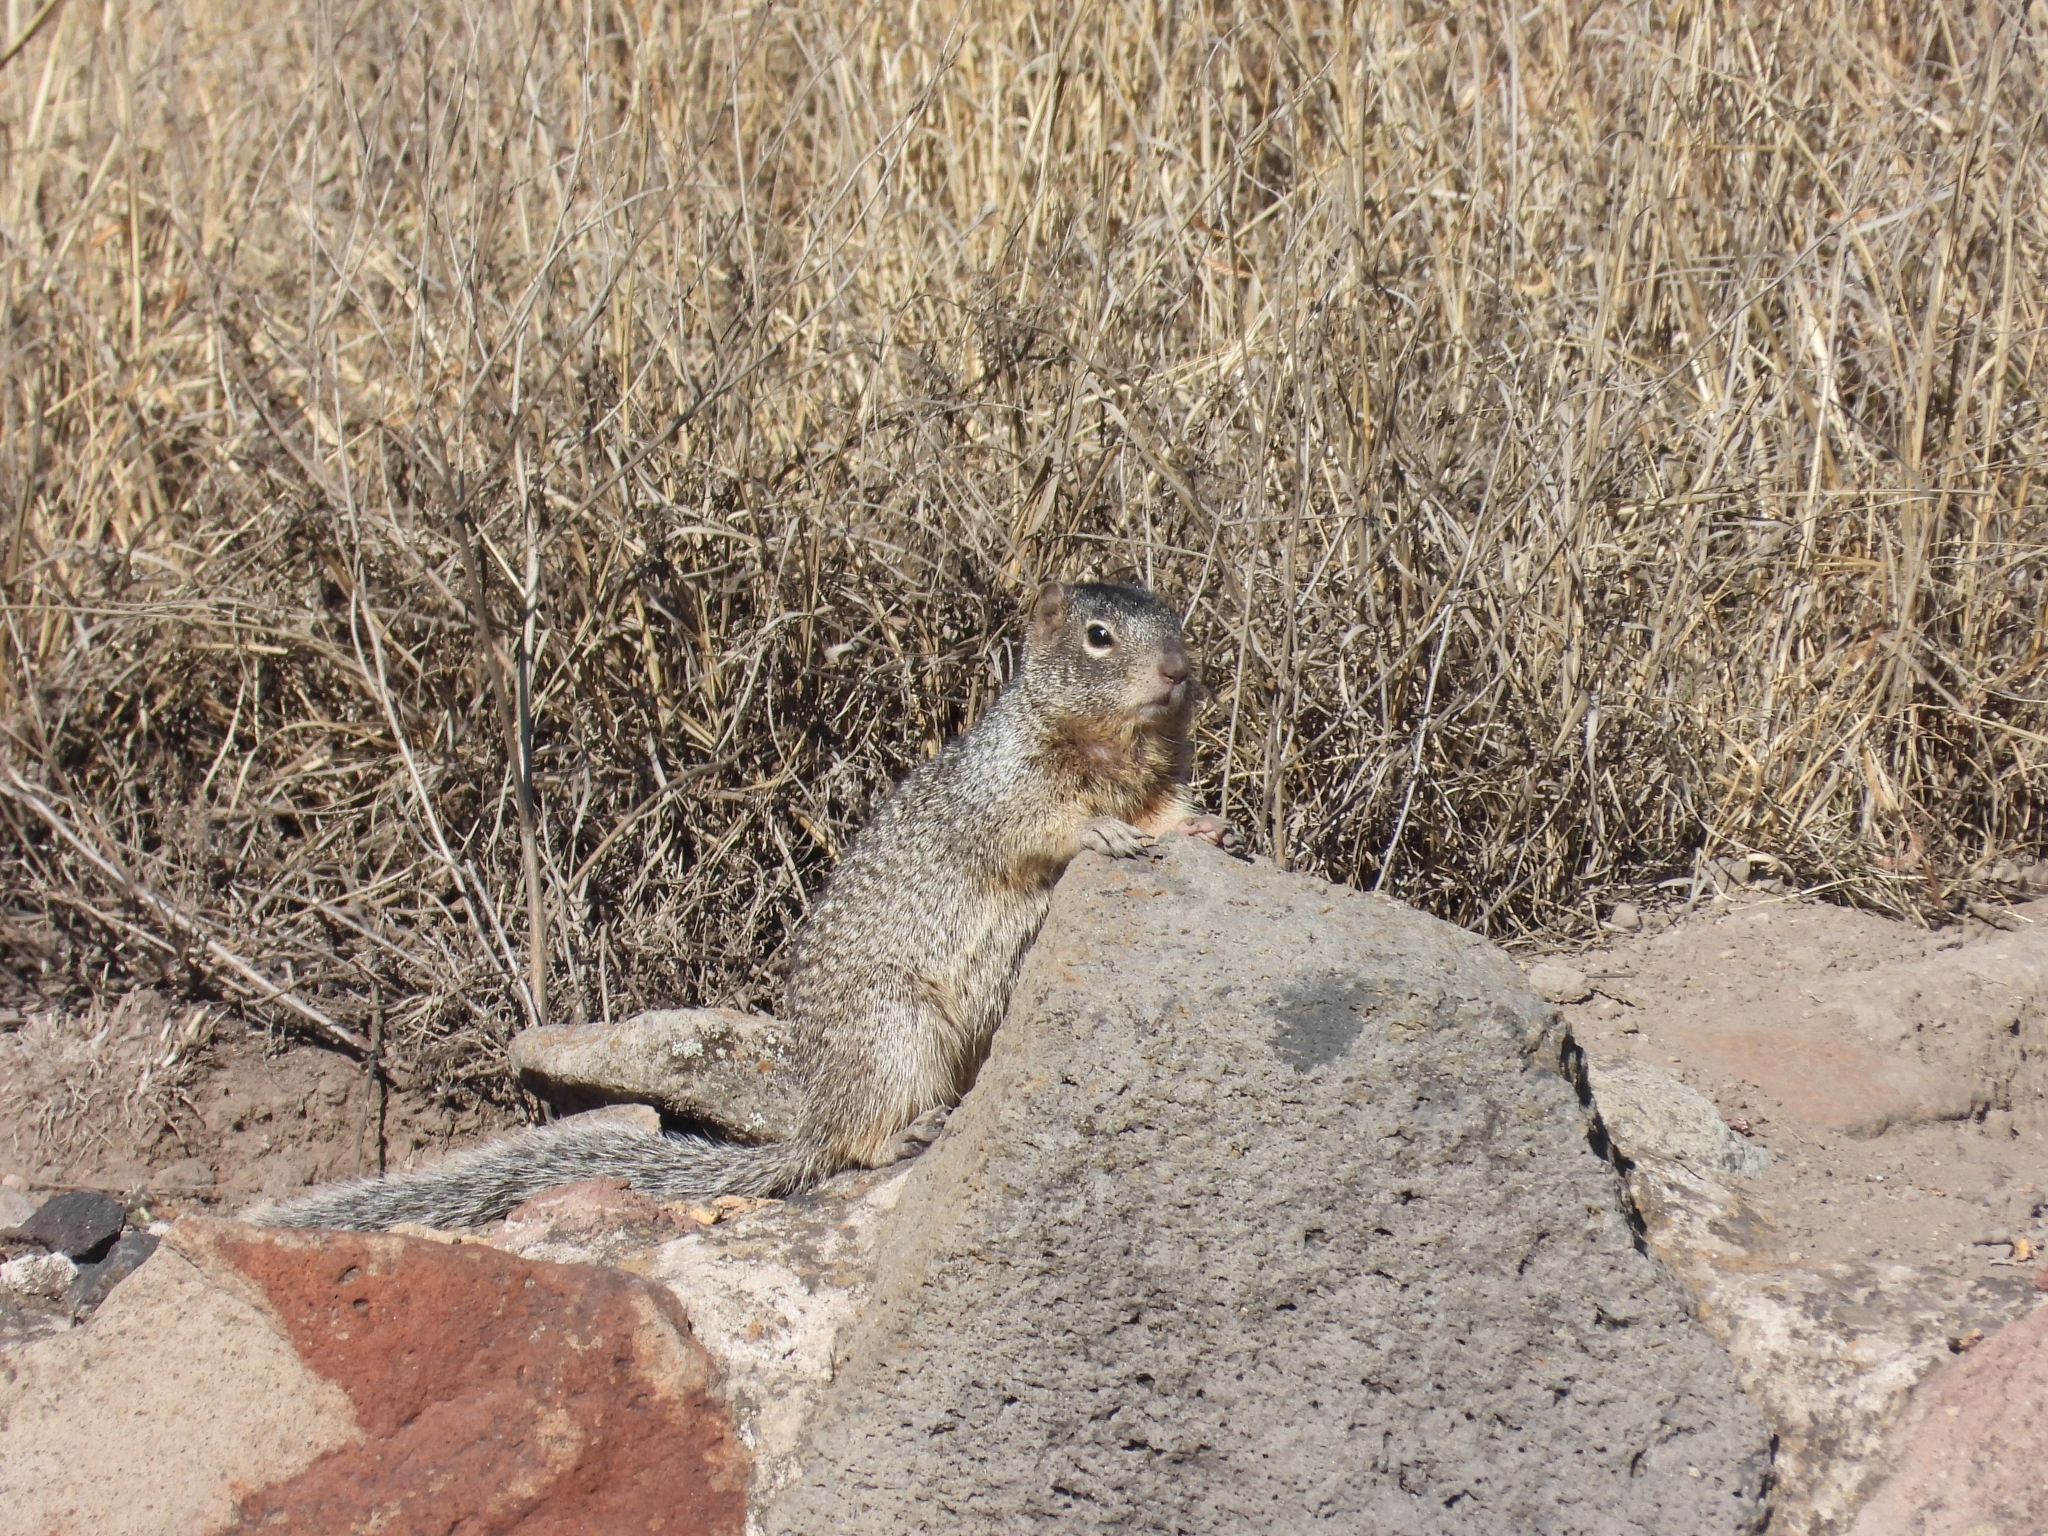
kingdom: Animalia
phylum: Chordata
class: Mammalia
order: Rodentia
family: Sciuridae
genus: Otospermophilus
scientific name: Otospermophilus variegatus
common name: Rock squirrel
